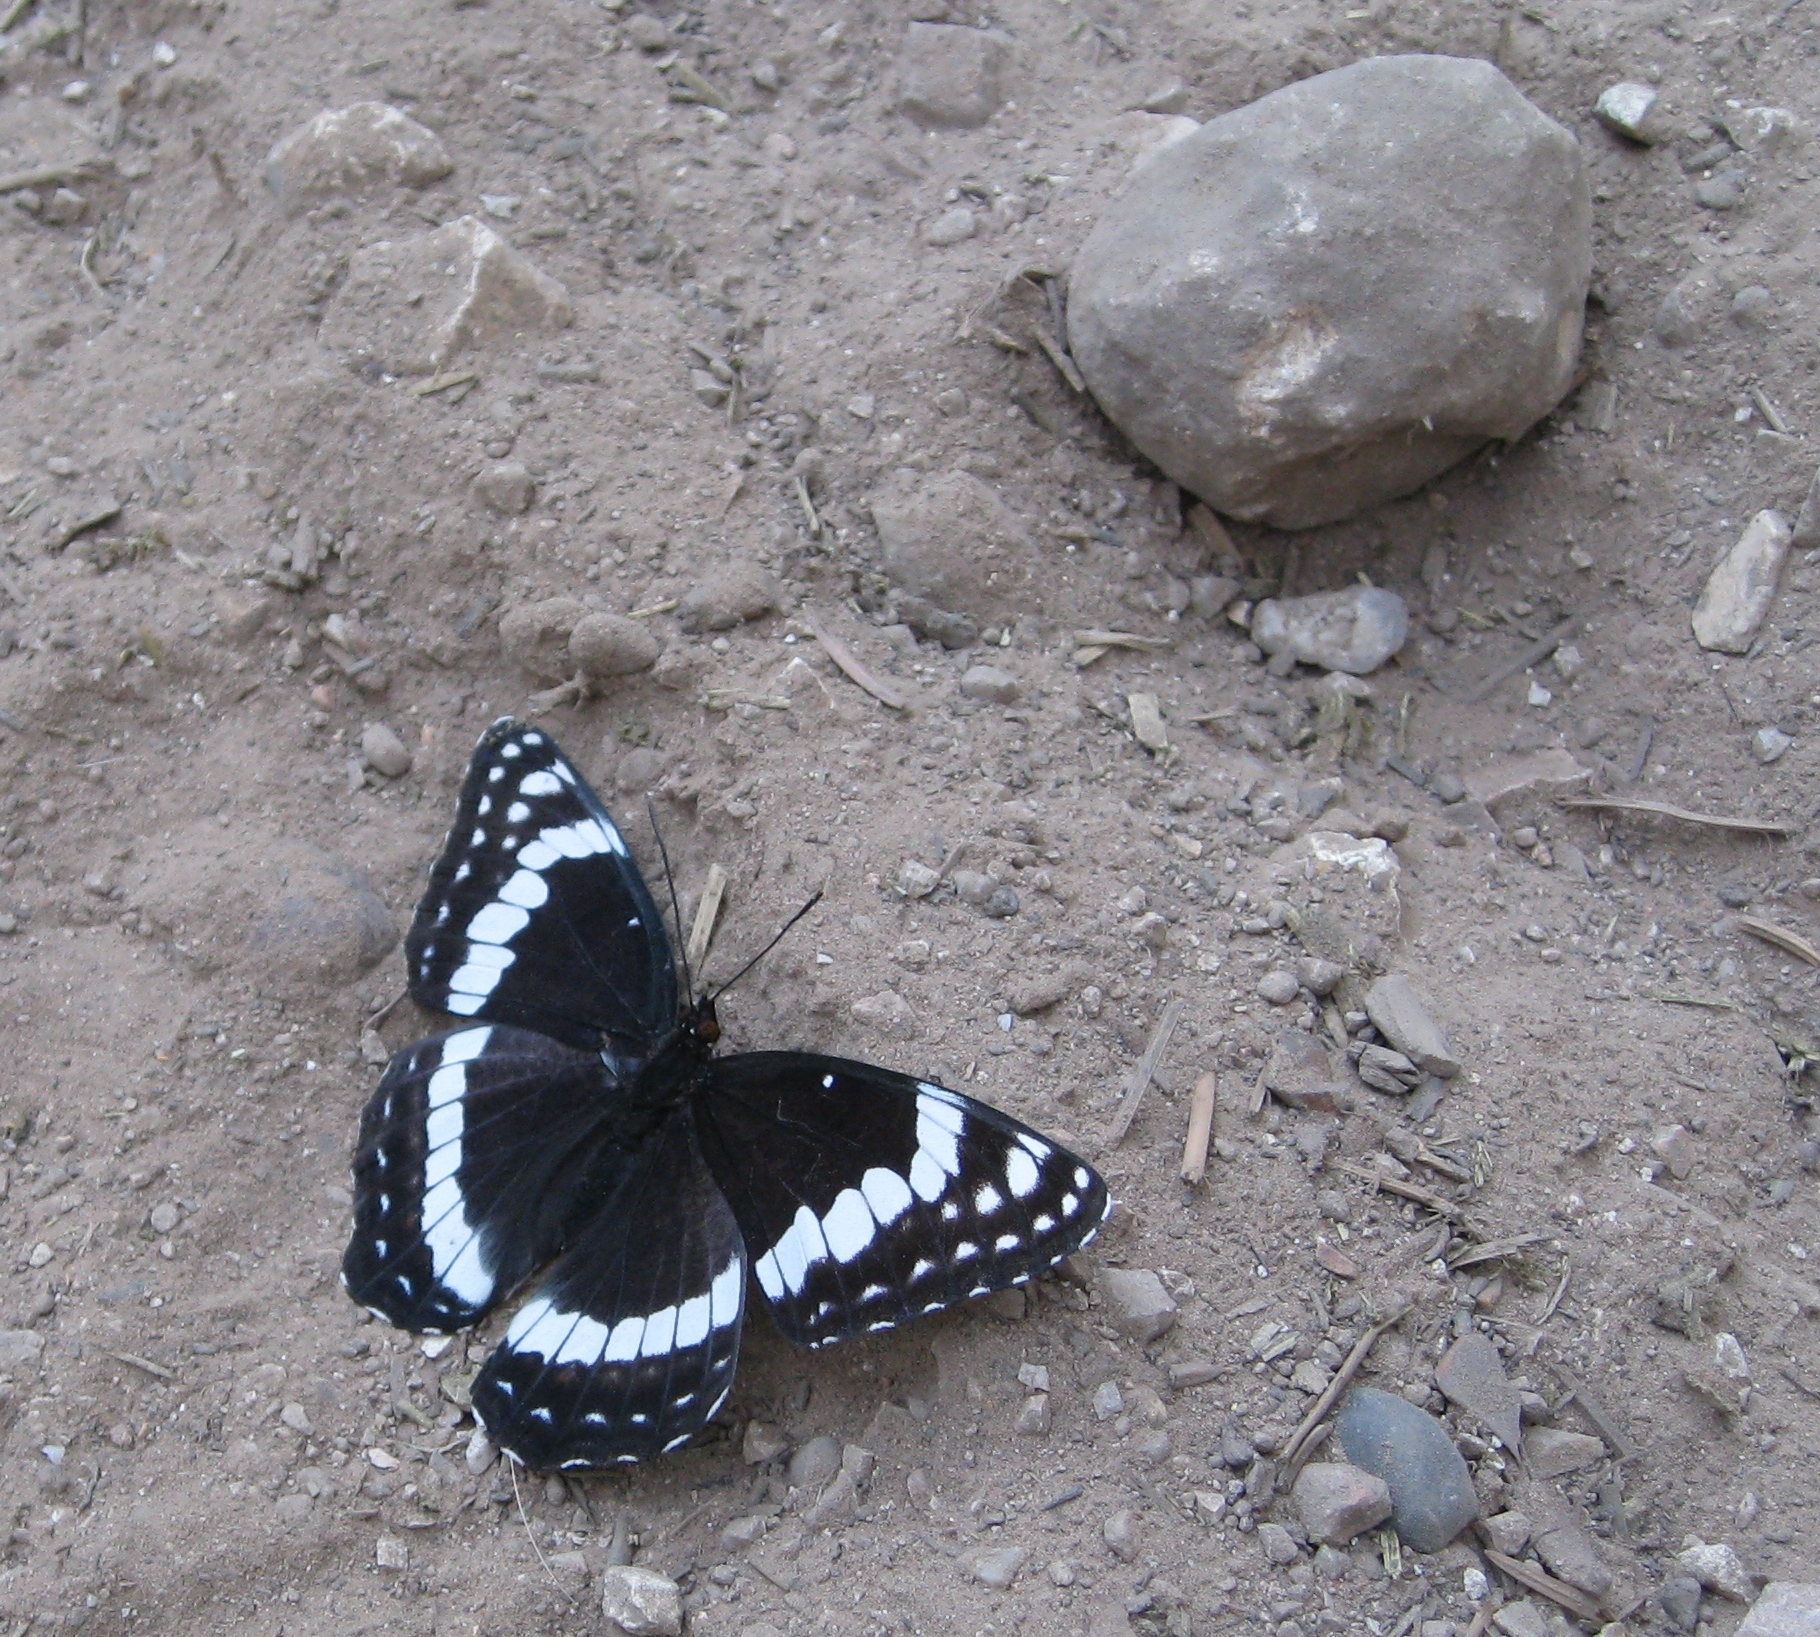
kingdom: Animalia
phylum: Arthropoda
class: Insecta
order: Lepidoptera
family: Nymphalidae
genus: Limenitis
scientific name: Limenitis weidemeyerii
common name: Weidemeyer's admiral
